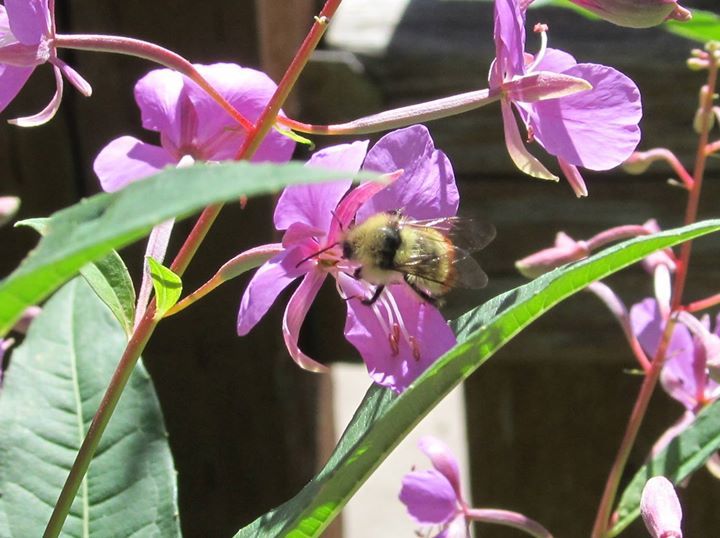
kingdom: Animalia
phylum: Arthropoda
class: Insecta
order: Hymenoptera
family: Apidae
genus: Bombus
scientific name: Bombus centralis
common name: Central bumble bee
